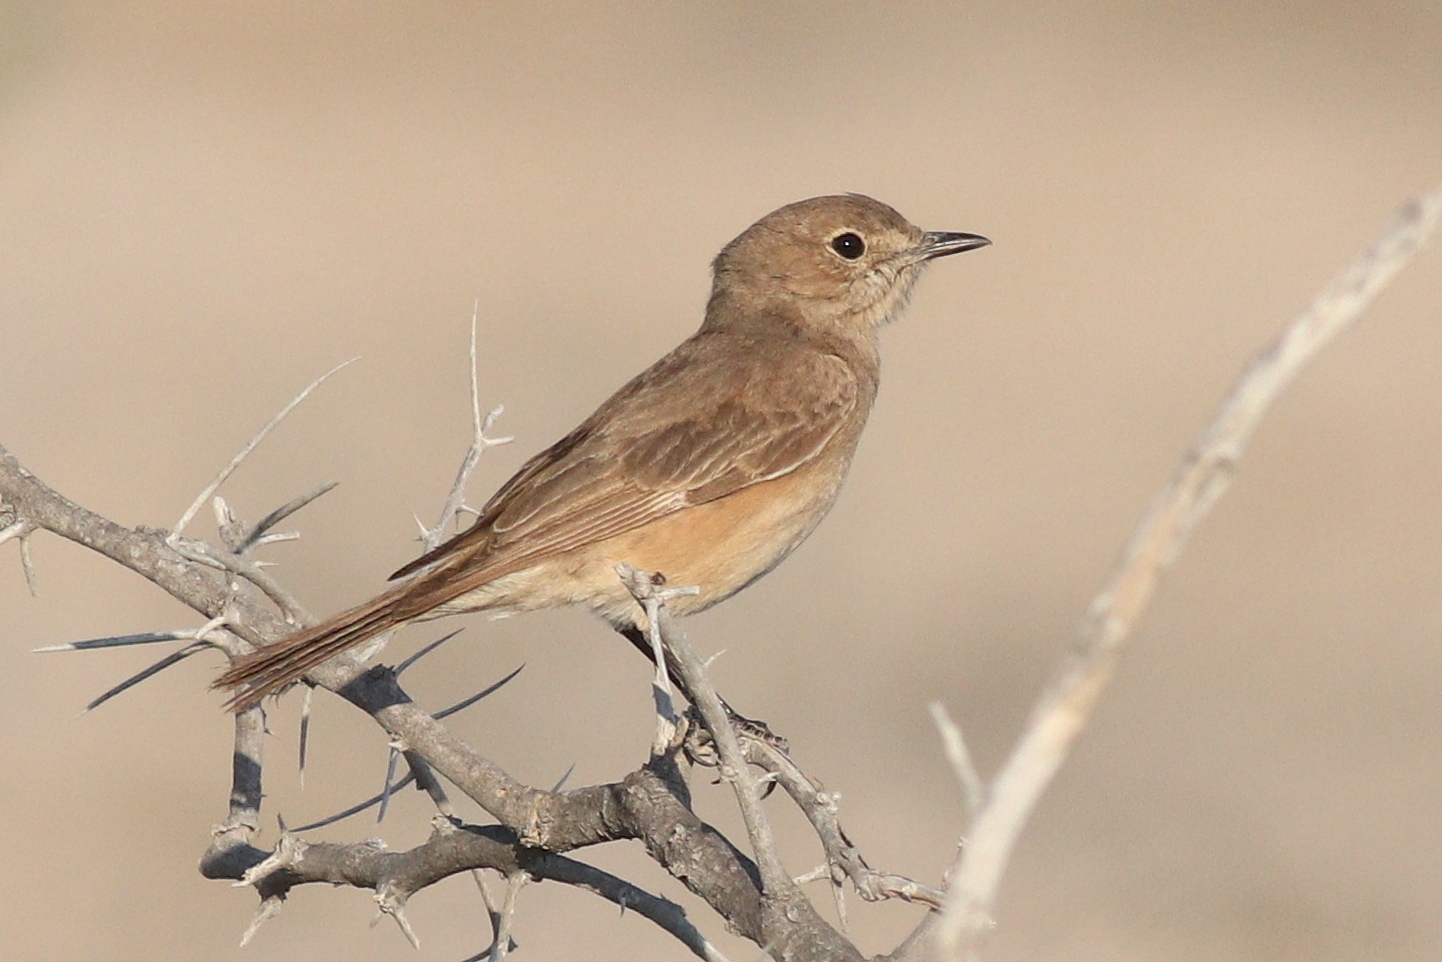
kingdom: Animalia
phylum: Chordata
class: Aves
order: Passeriformes
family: Muscicapidae
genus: Bradornis
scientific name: Bradornis infuscatus
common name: Chat flycatcher
